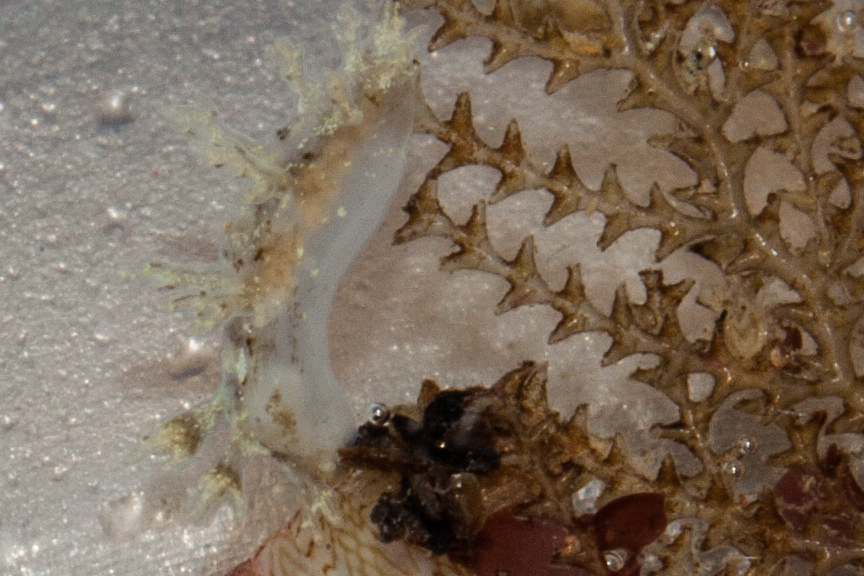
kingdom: Animalia
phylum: Mollusca
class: Gastropoda
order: Nudibranchia
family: Dendronotidae
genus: Dendronotus
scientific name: Dendronotus venustus
